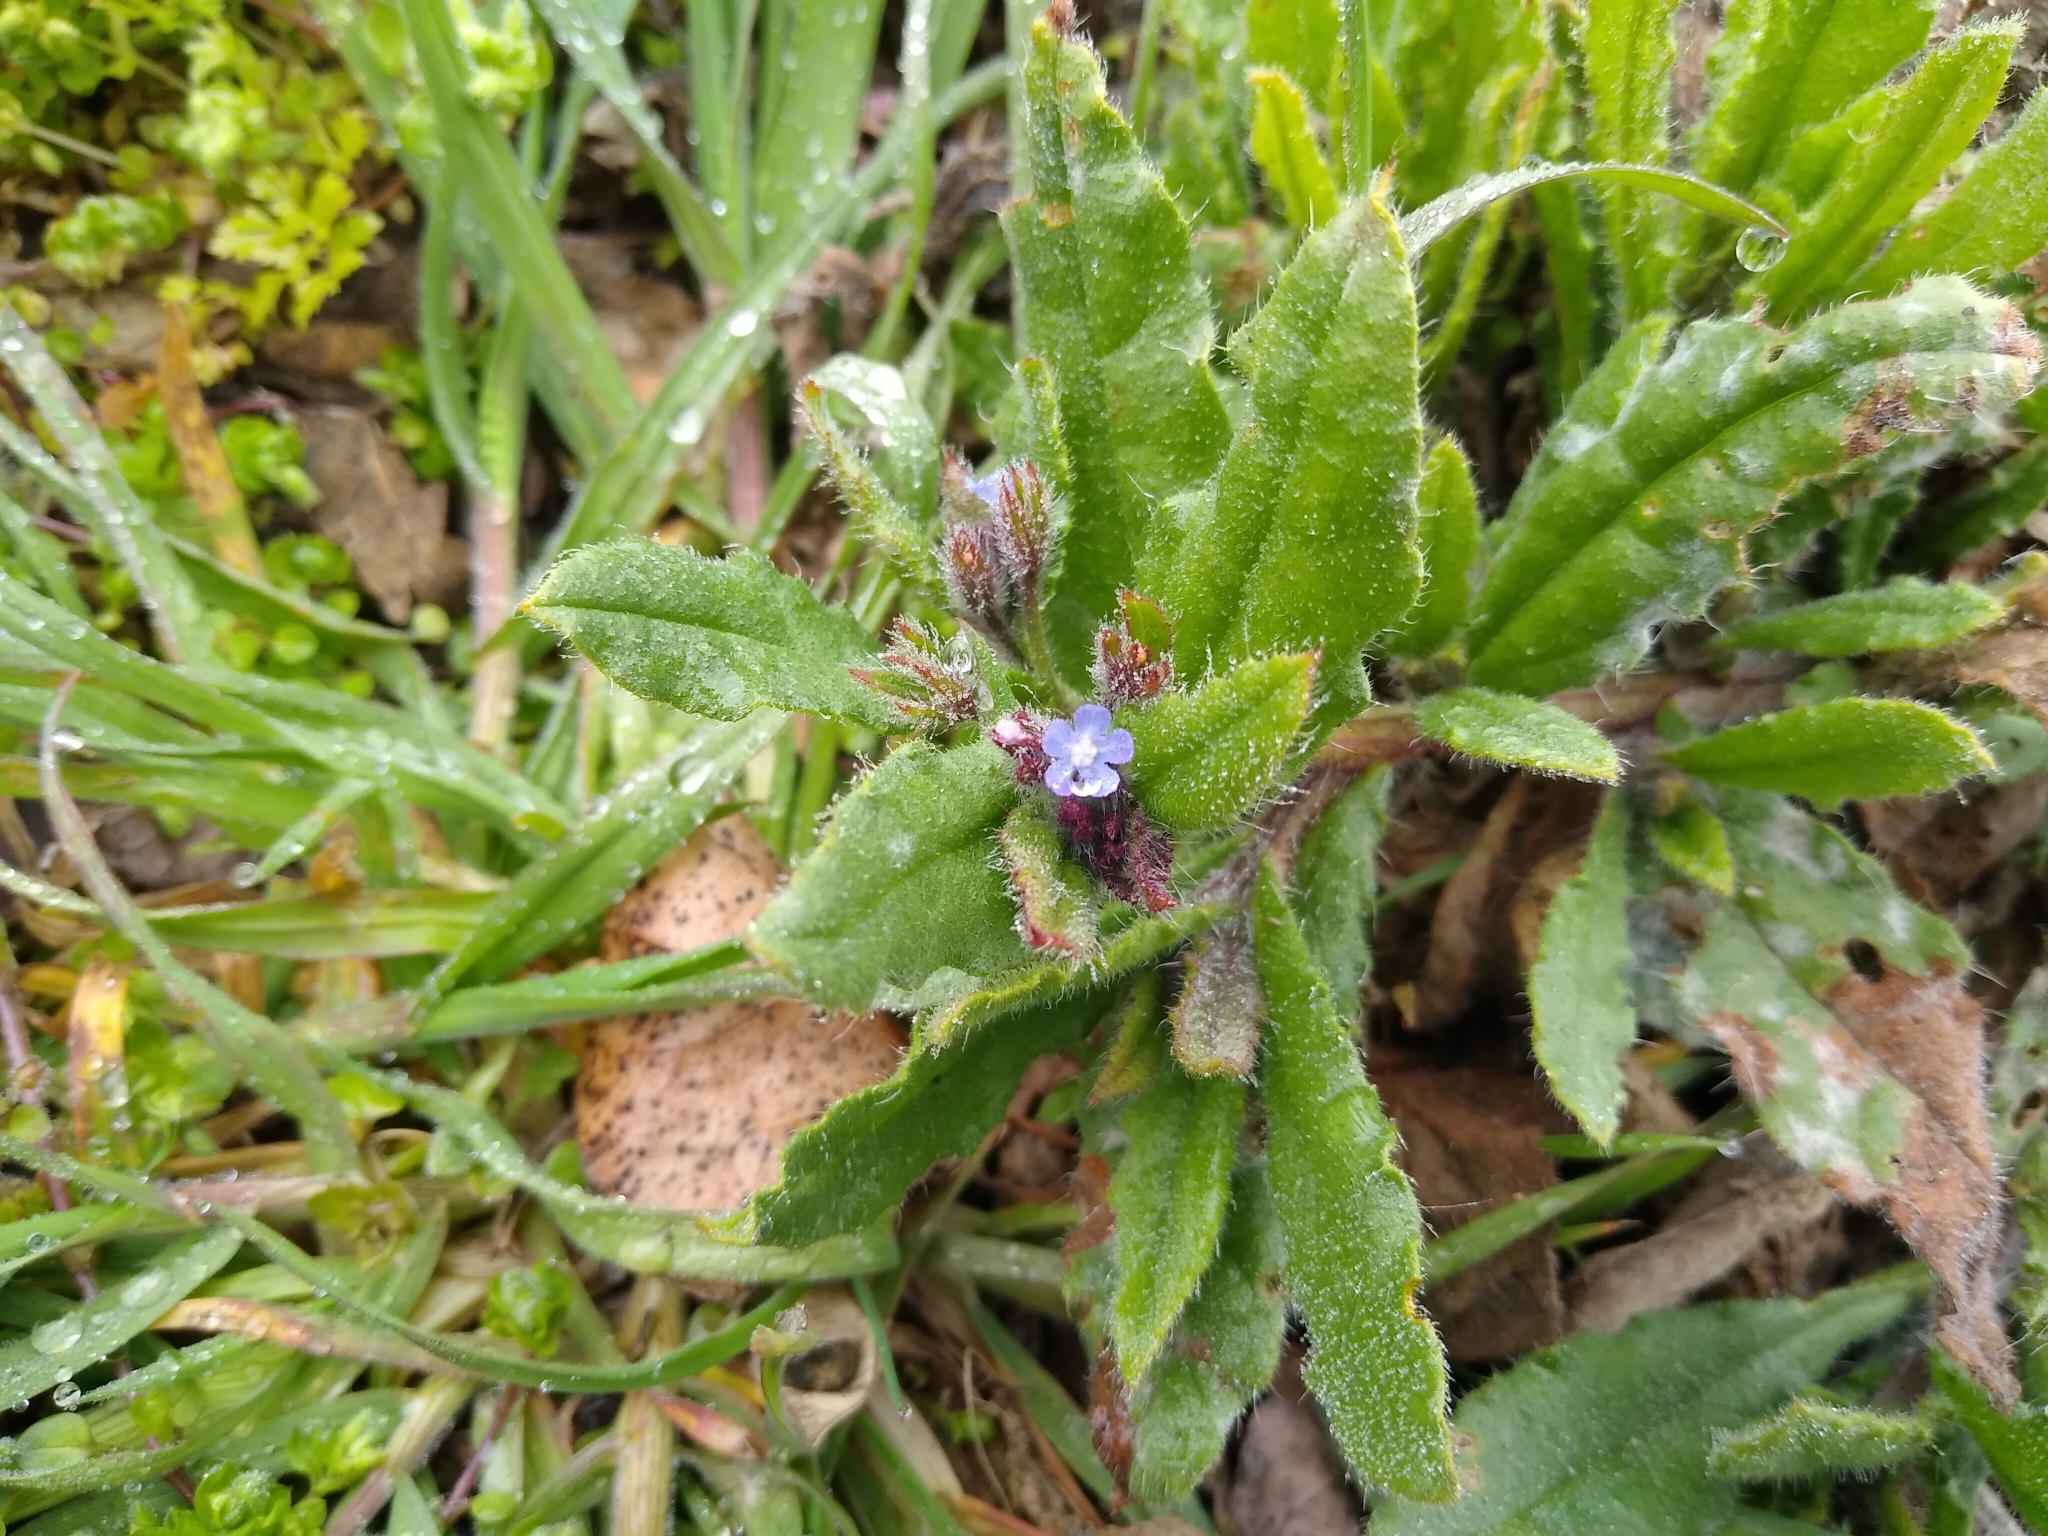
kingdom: Plantae
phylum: Tracheophyta
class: Magnoliopsida
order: Boraginales
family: Boraginaceae
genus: Lycopsis
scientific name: Lycopsis arvensis
